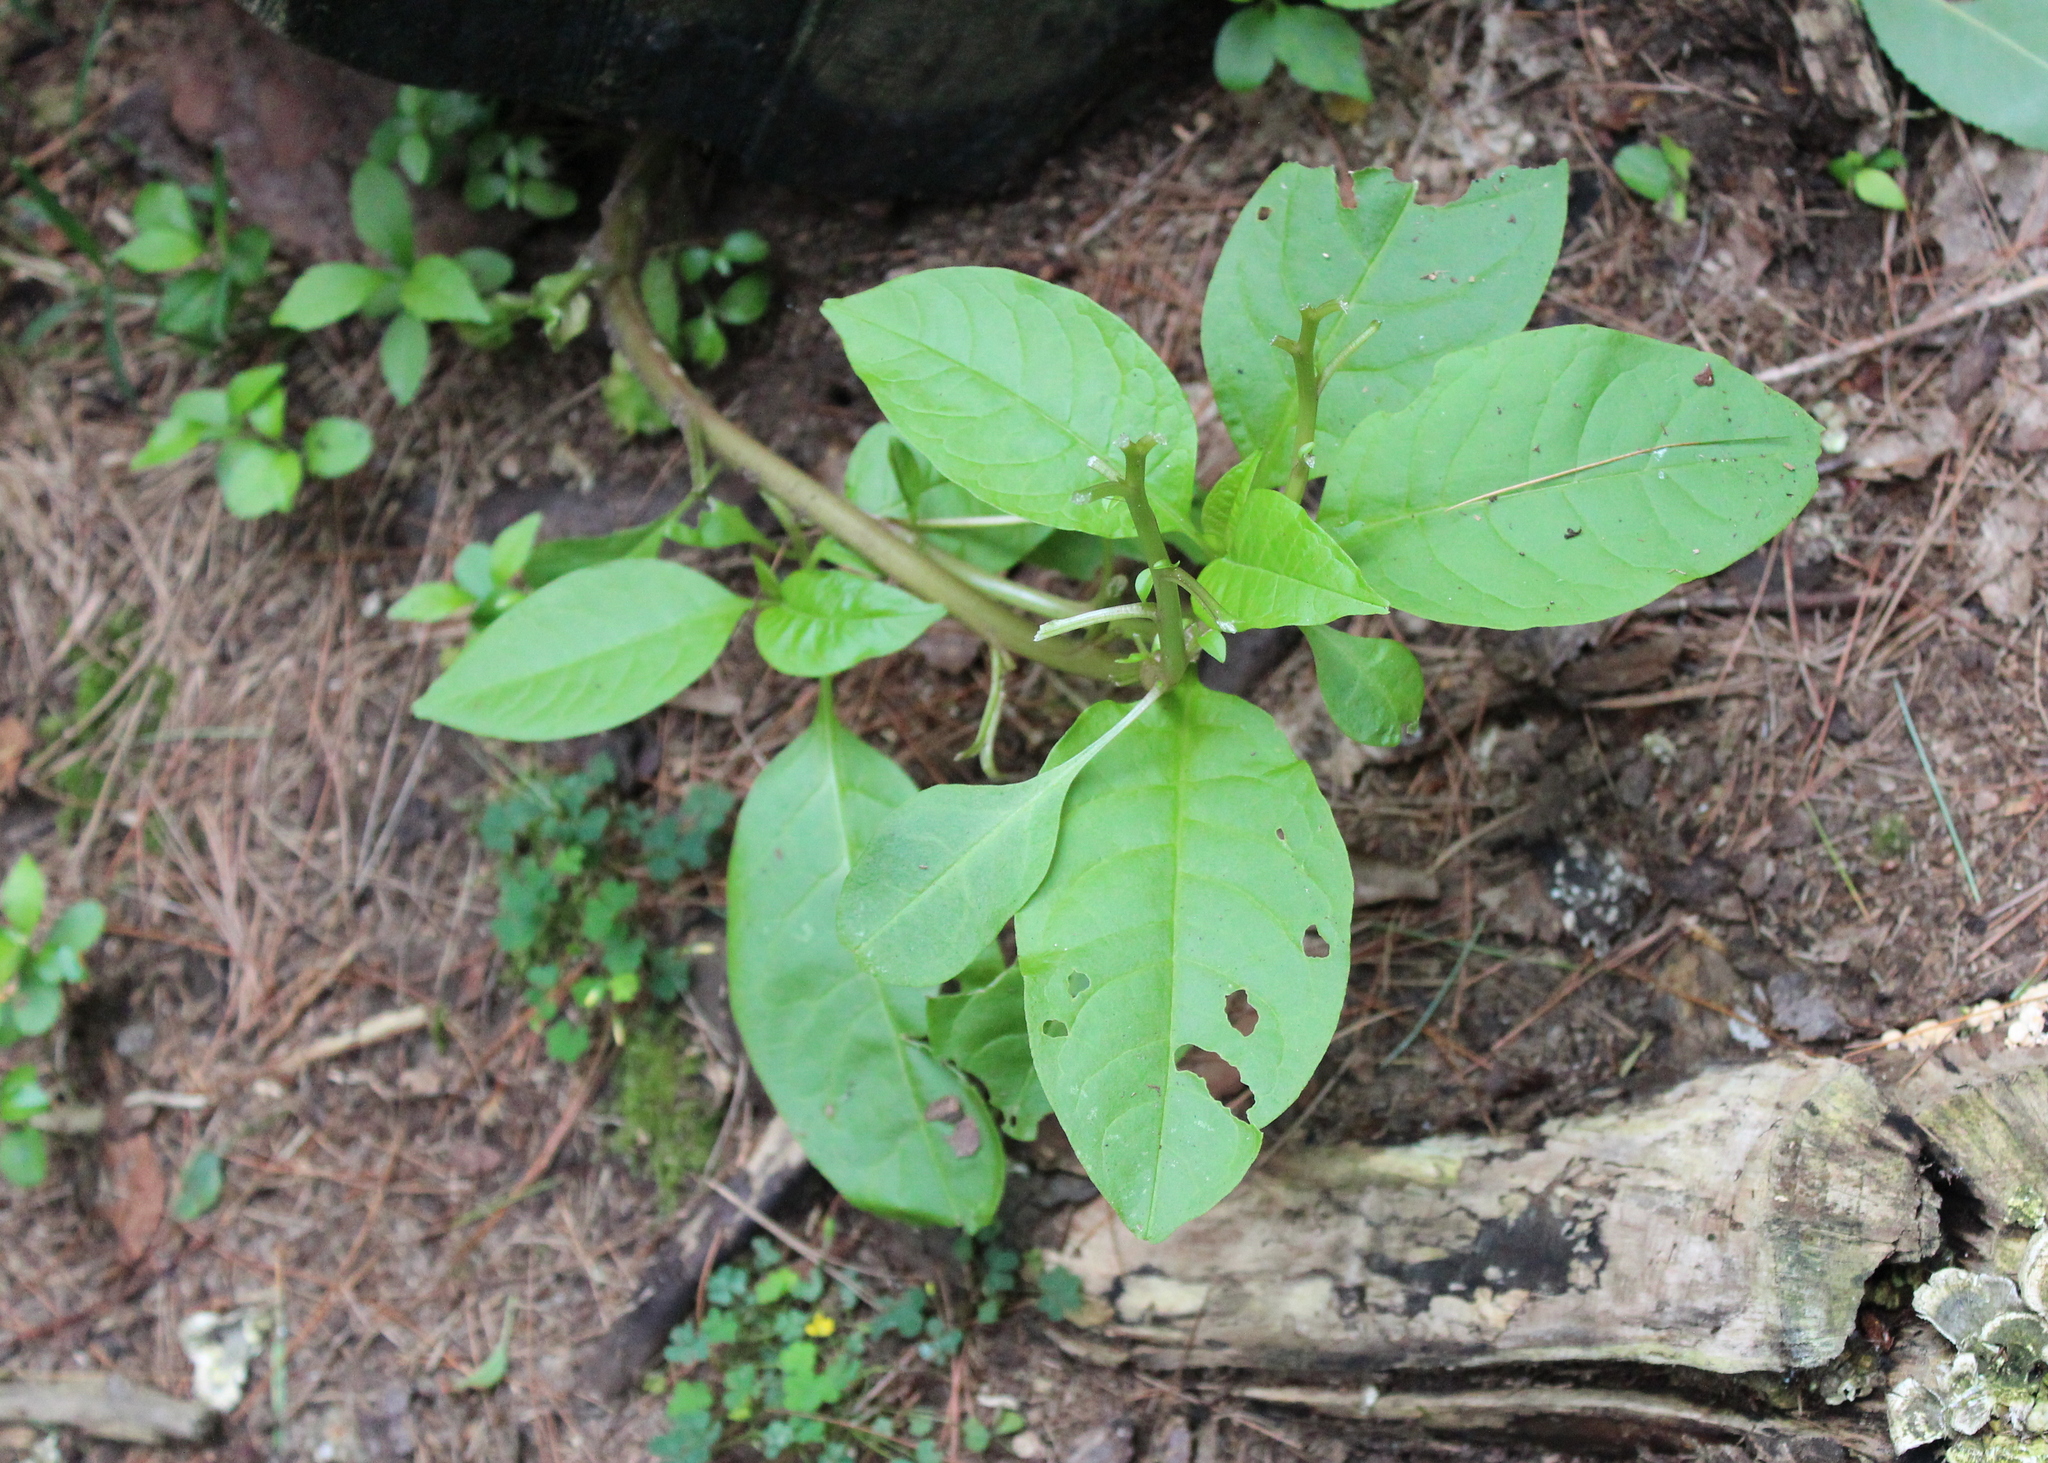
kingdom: Plantae
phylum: Tracheophyta
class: Magnoliopsida
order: Caryophyllales
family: Phytolaccaceae
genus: Phytolacca
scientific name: Phytolacca americana
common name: American pokeweed
